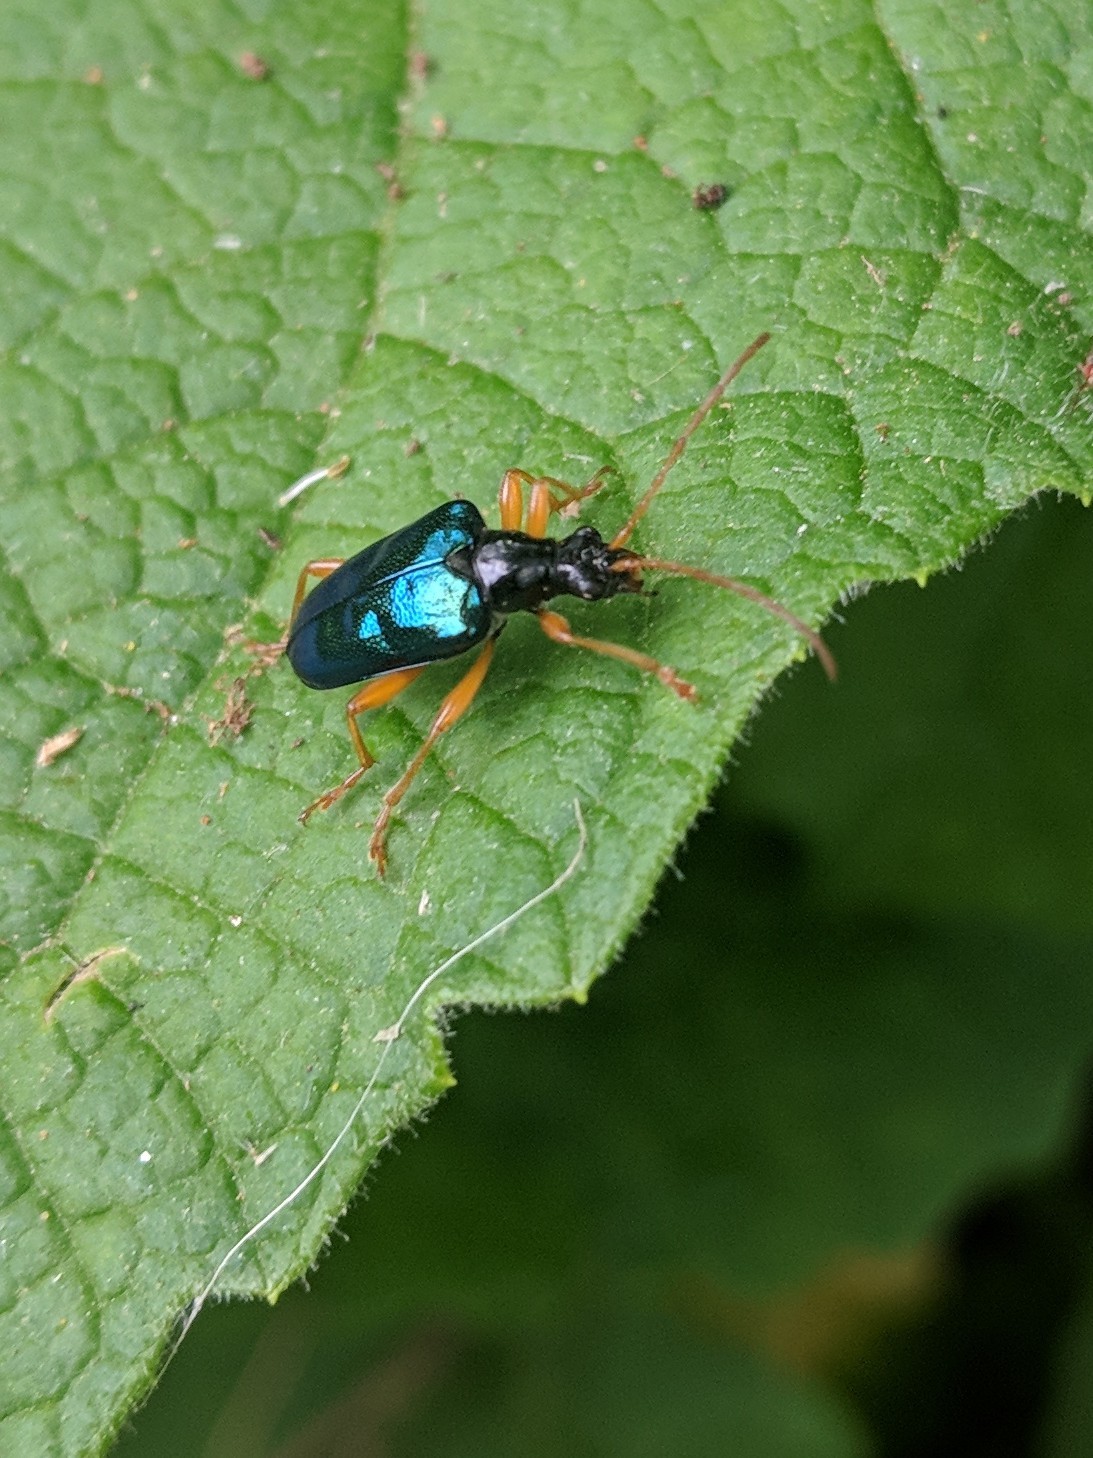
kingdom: Animalia
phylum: Arthropoda
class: Insecta
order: Coleoptera
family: Cerambycidae
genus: Gaurotes
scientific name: Gaurotes cyanipennis
